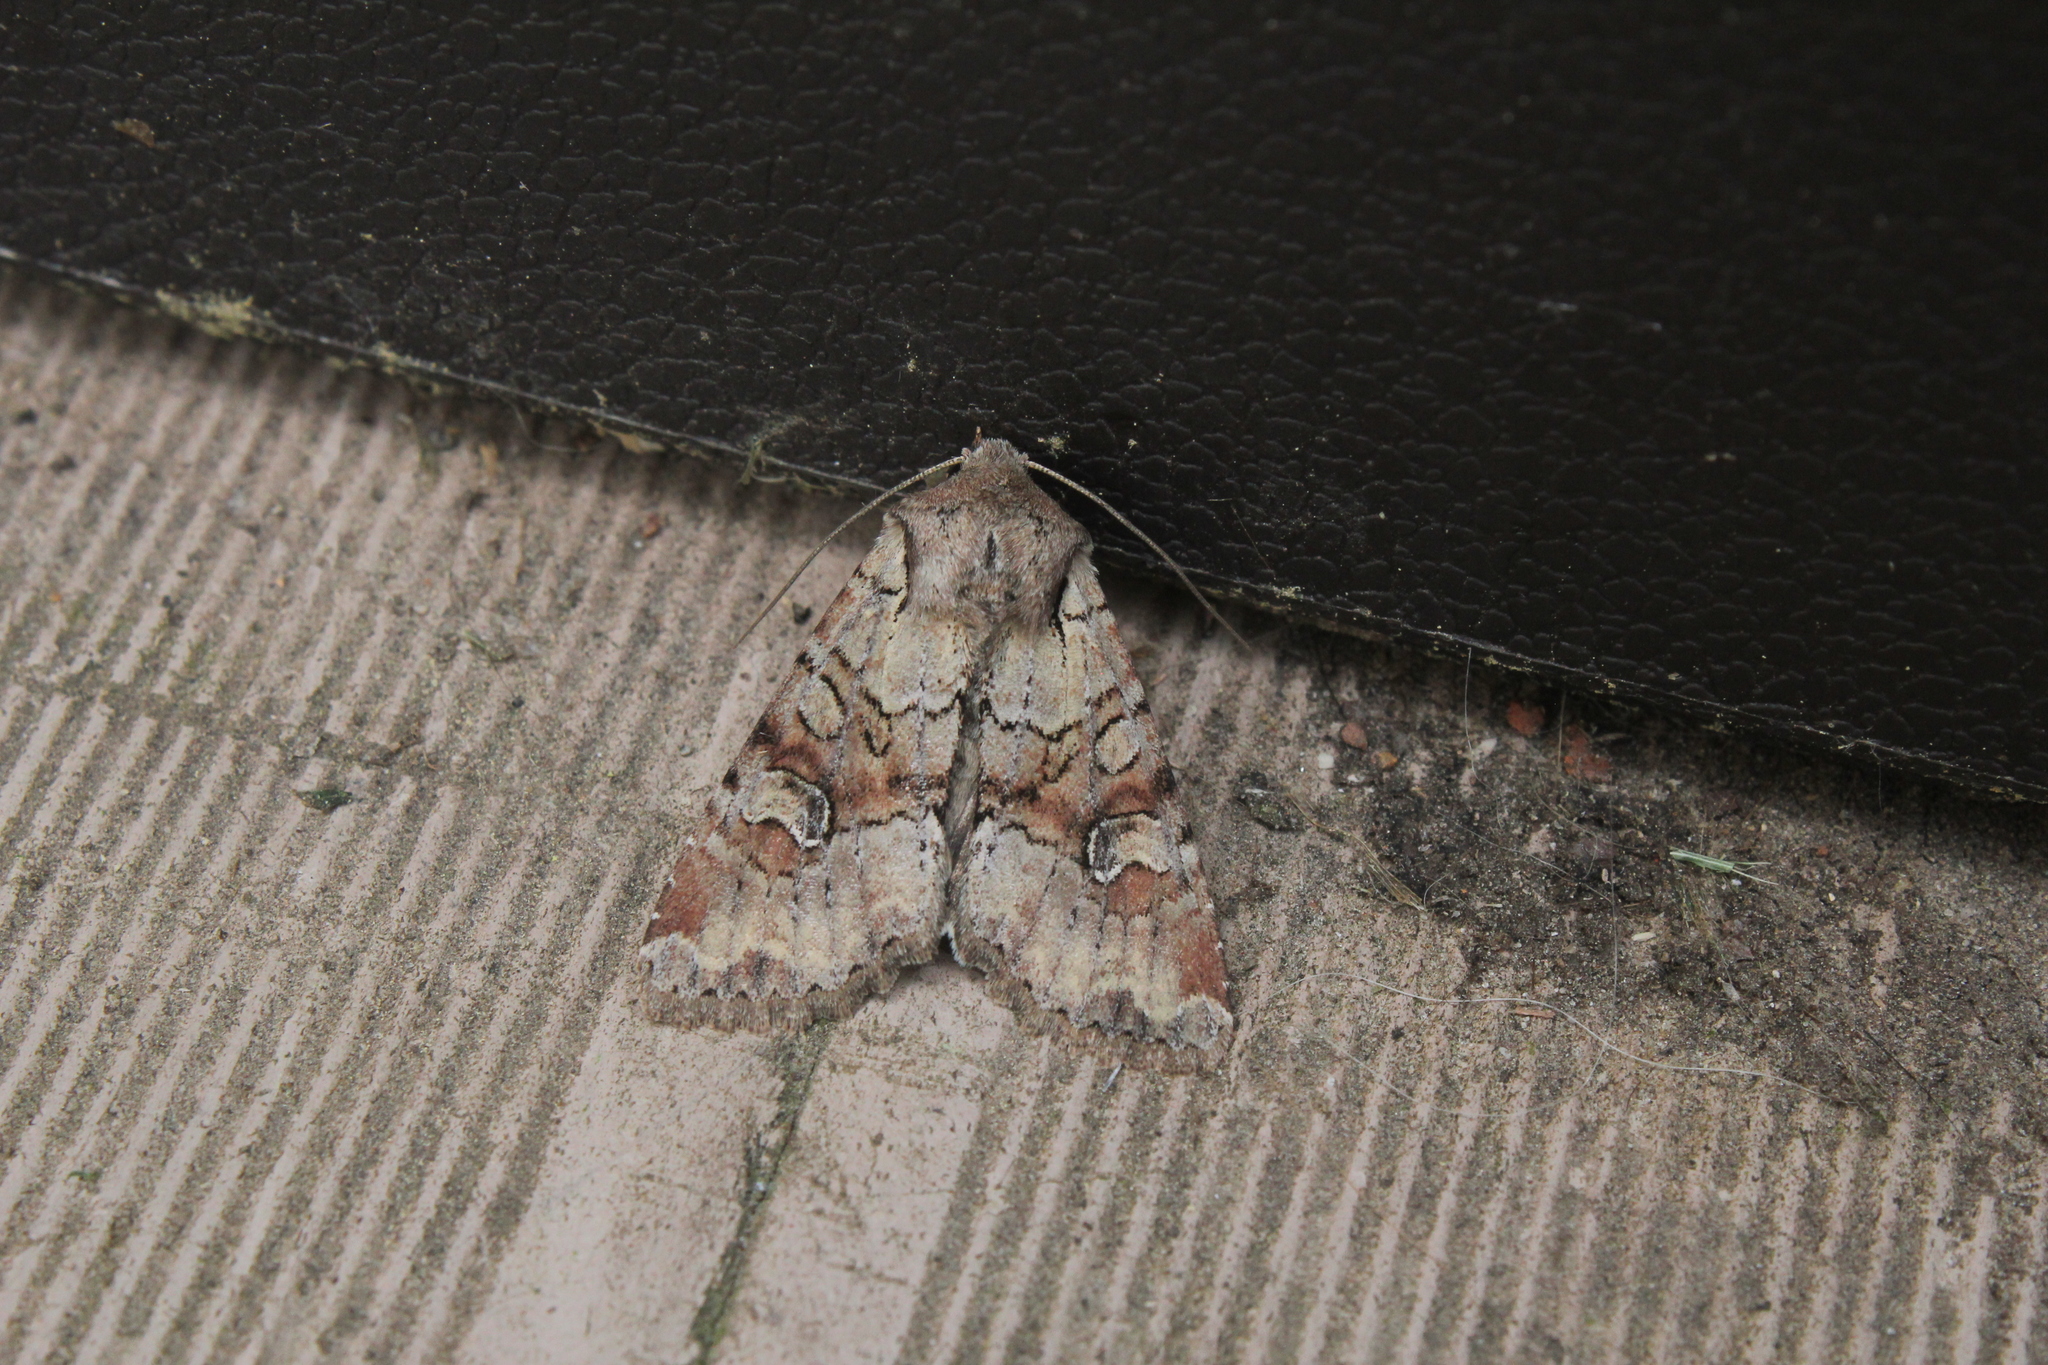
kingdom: Animalia
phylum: Arthropoda
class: Insecta
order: Lepidoptera
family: Noctuidae
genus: Apamea
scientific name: Apamea sordens
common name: Rustic shoulder-knot
